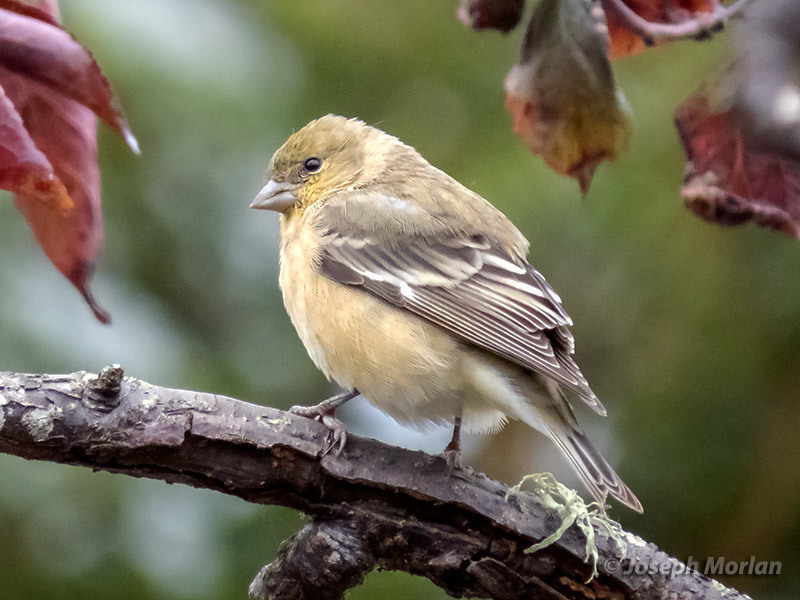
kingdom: Animalia
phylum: Chordata
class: Aves
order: Passeriformes
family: Fringillidae
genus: Spinus
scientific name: Spinus psaltria
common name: Lesser goldfinch
